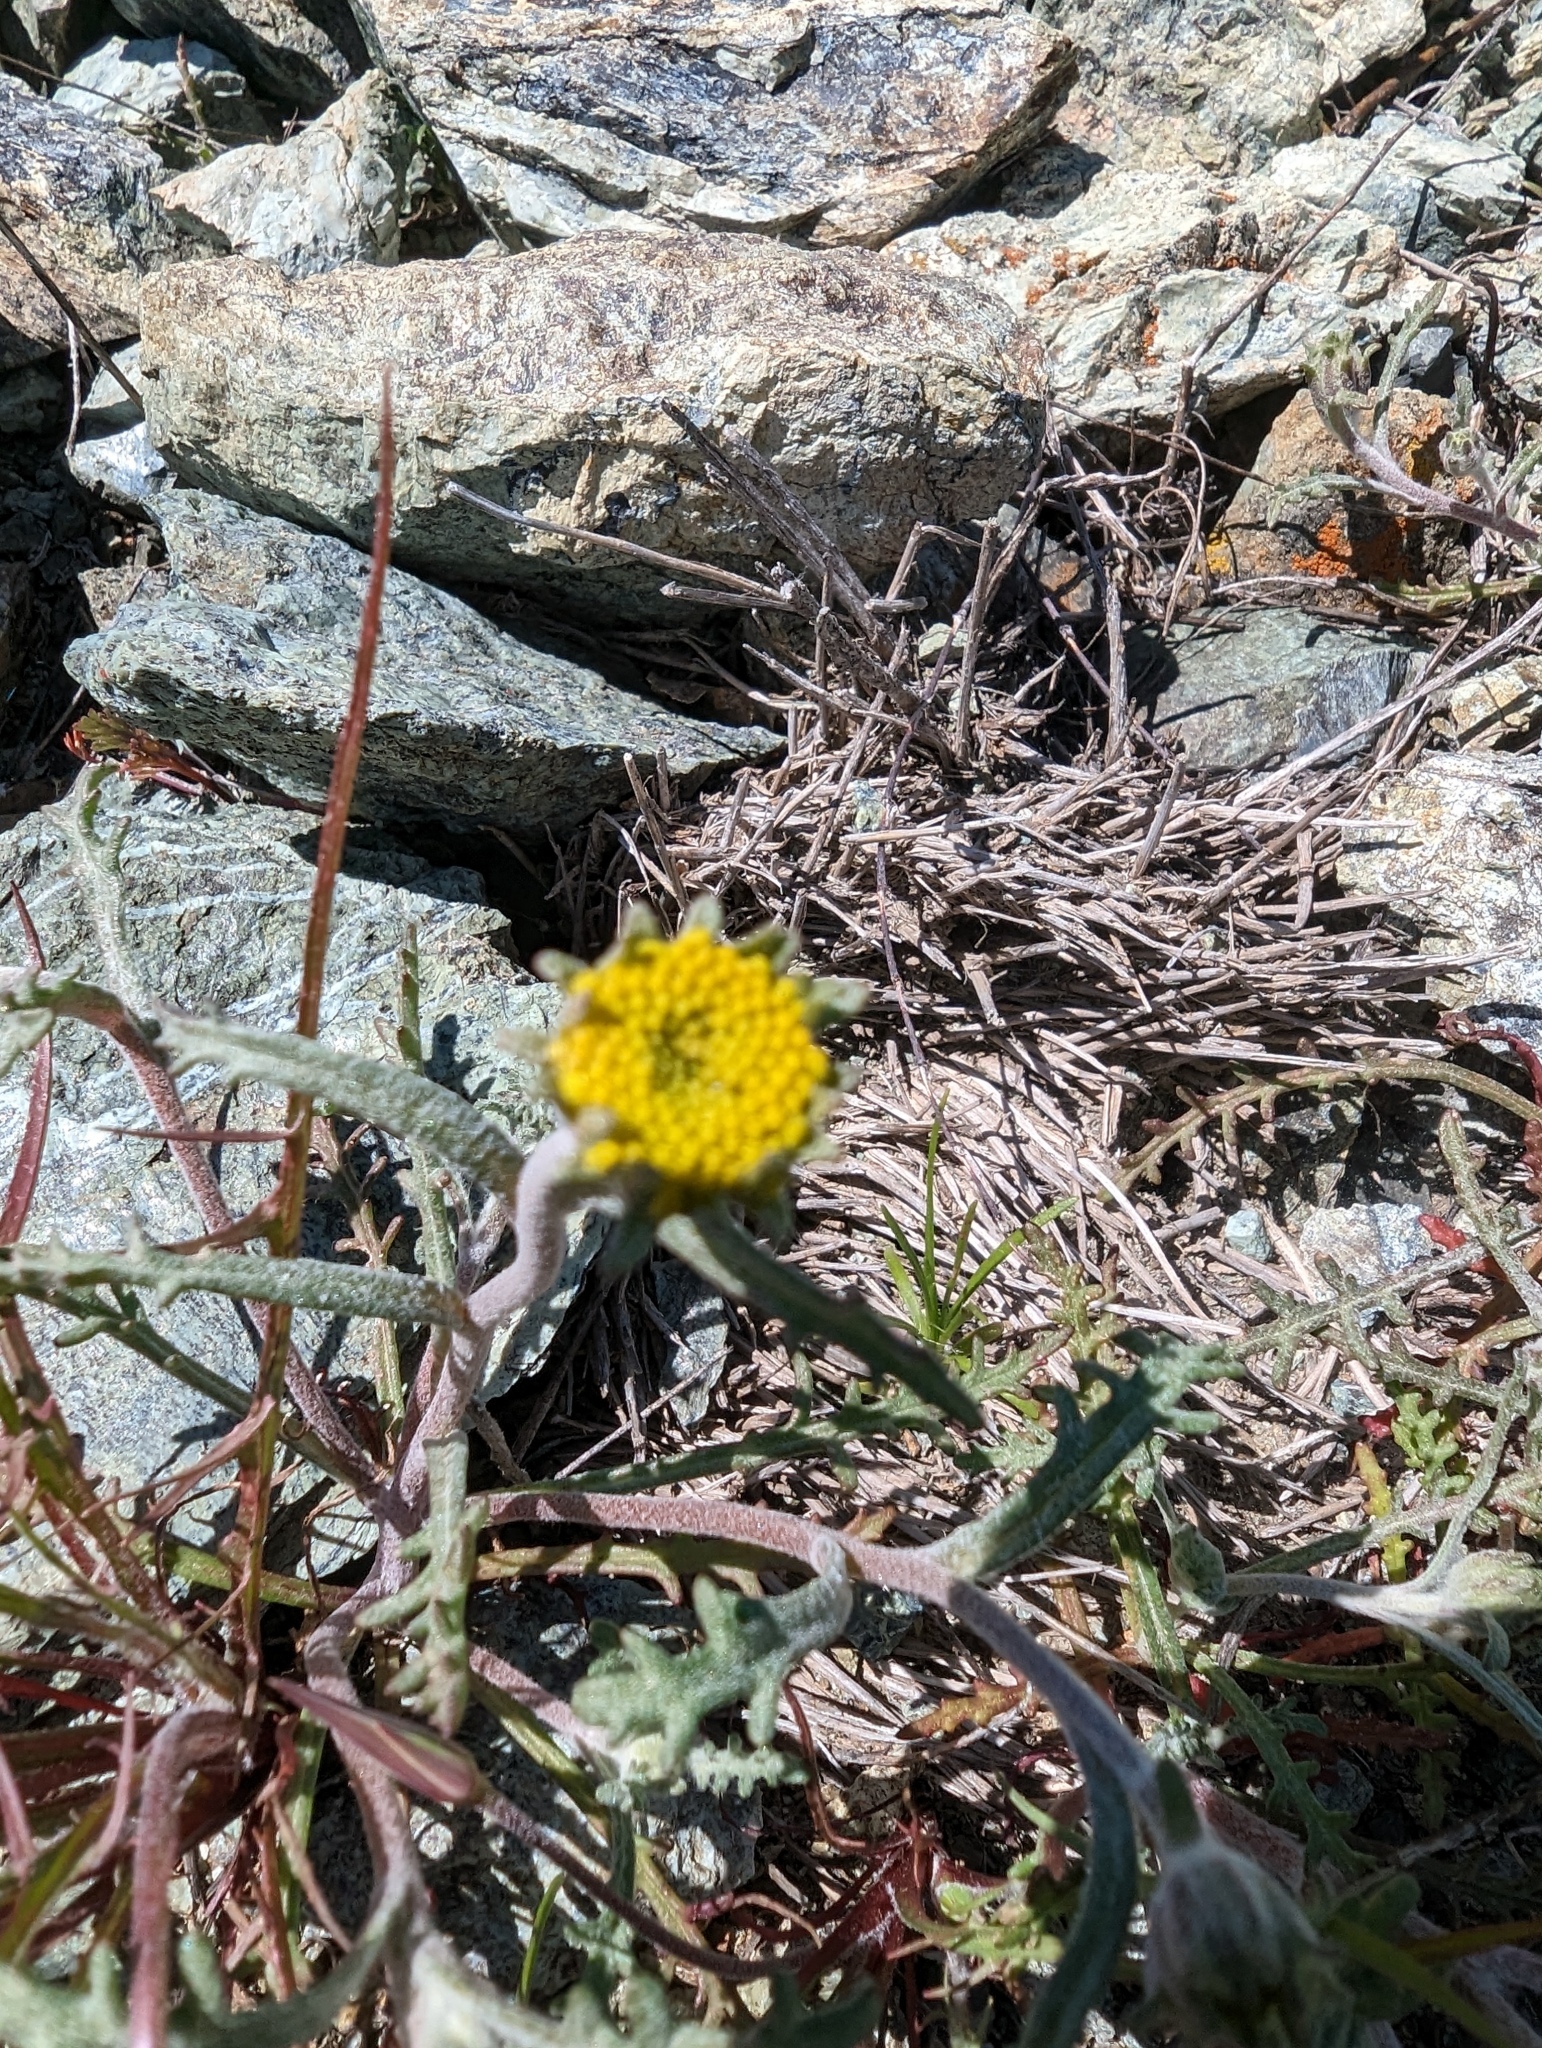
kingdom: Plantae
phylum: Tracheophyta
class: Magnoliopsida
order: Asterales
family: Asteraceae
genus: Chaenactis
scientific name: Chaenactis glabriuscula
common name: Yellow pincushion
